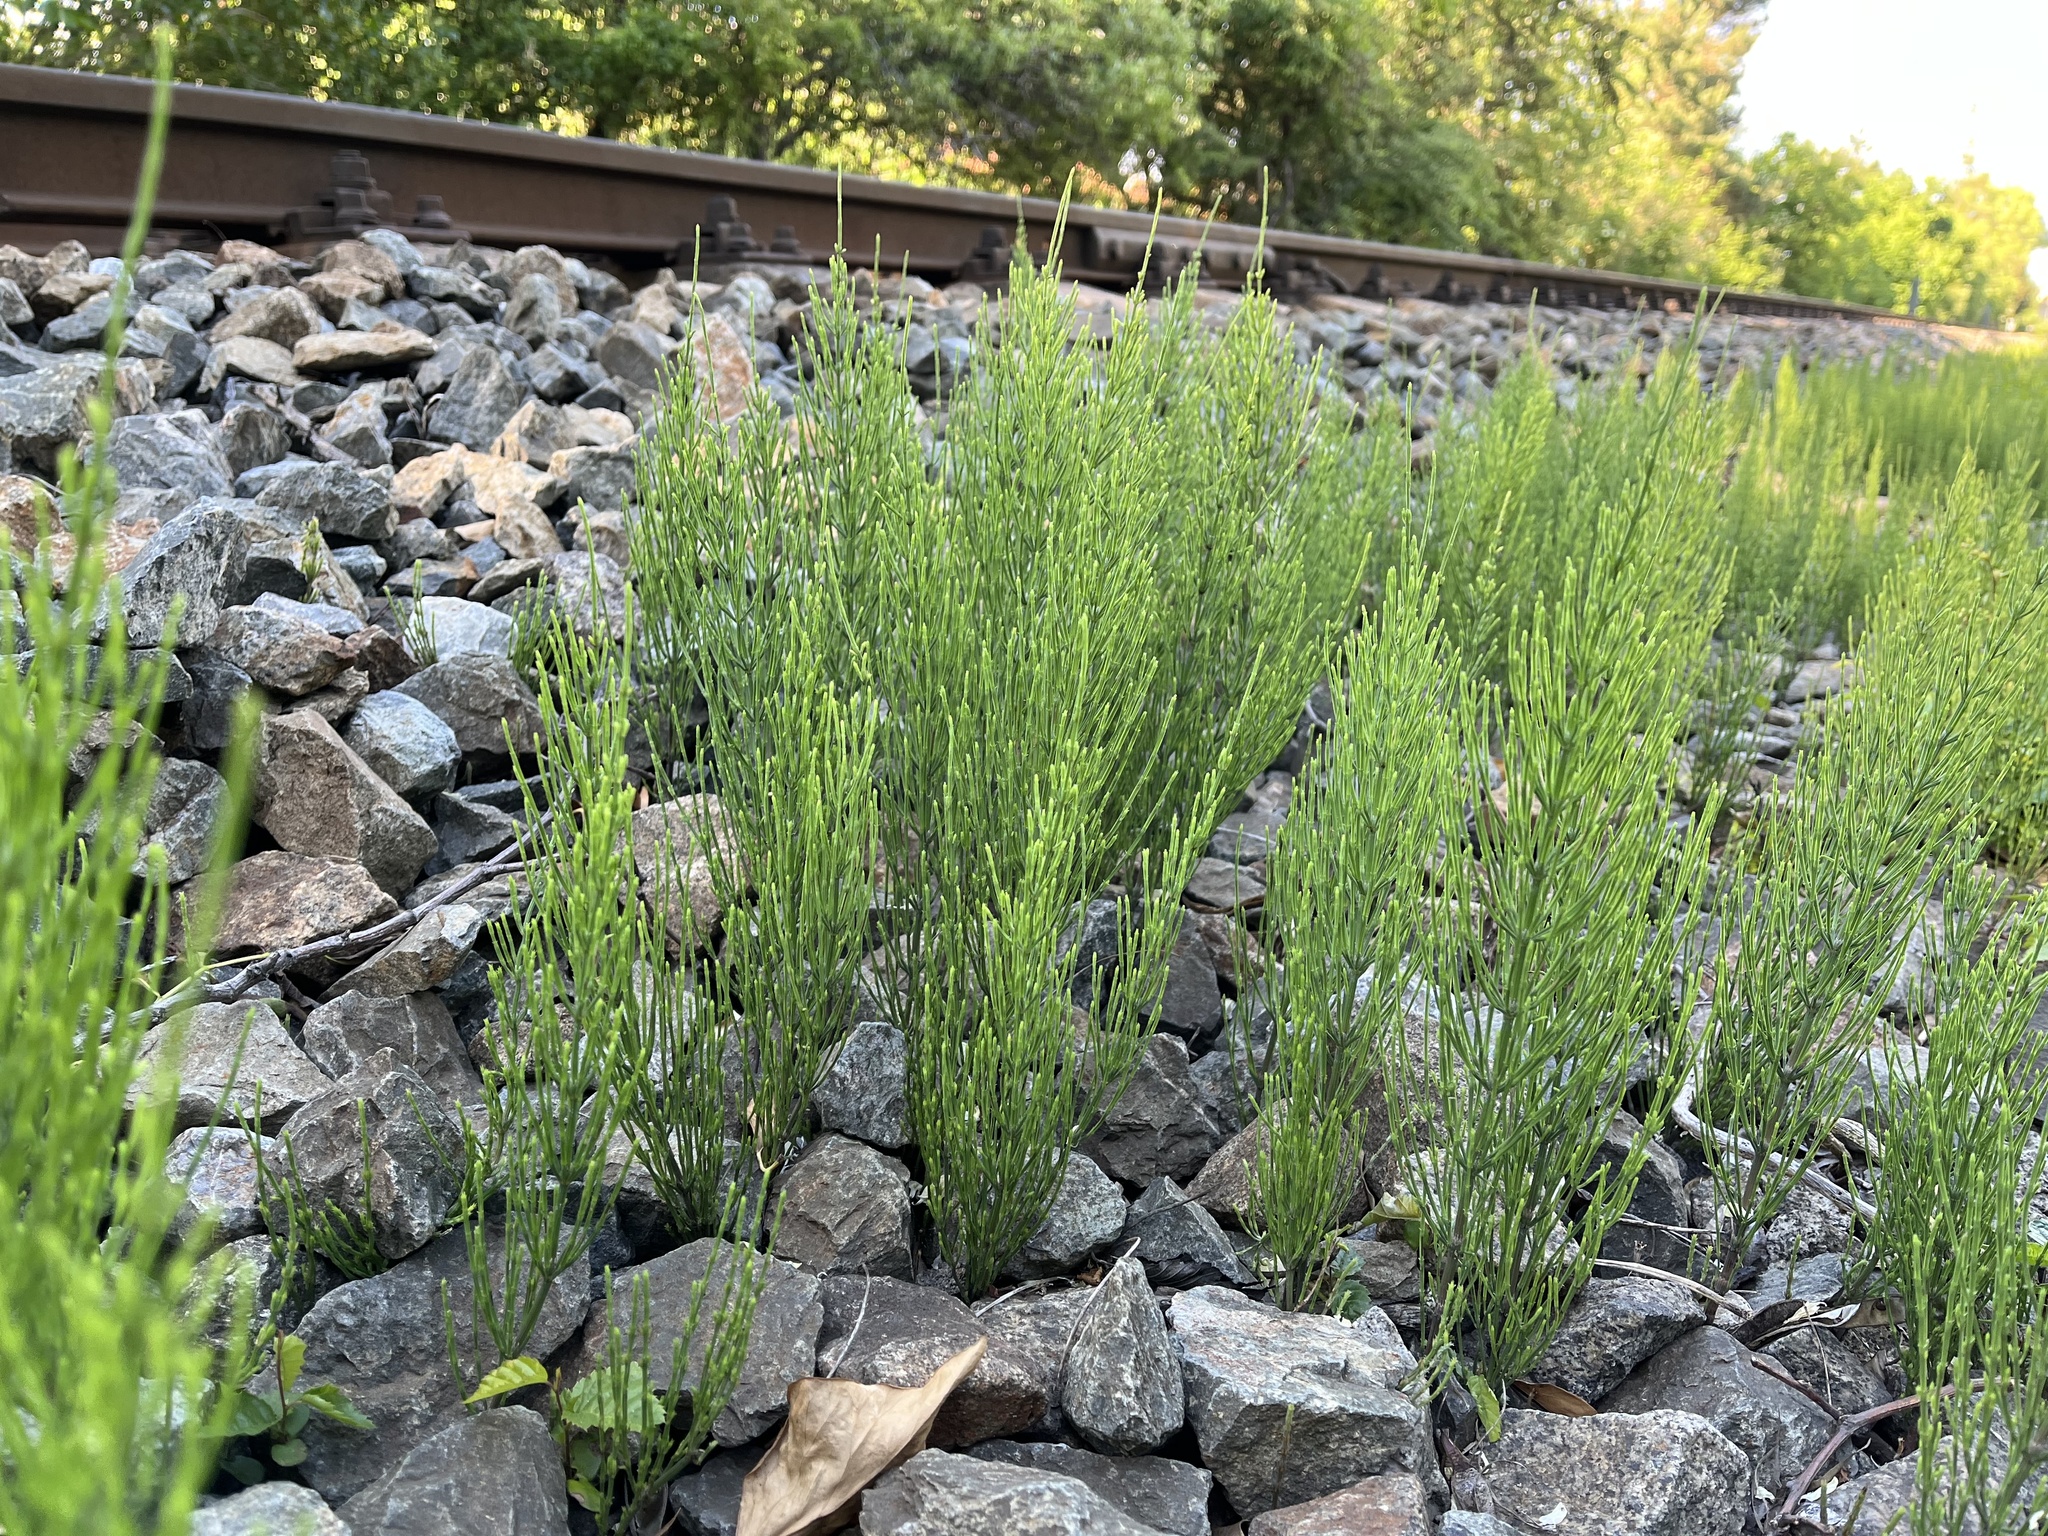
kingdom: Plantae
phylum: Tracheophyta
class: Polypodiopsida
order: Equisetales
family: Equisetaceae
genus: Equisetum
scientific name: Equisetum arvense
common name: Field horsetail
